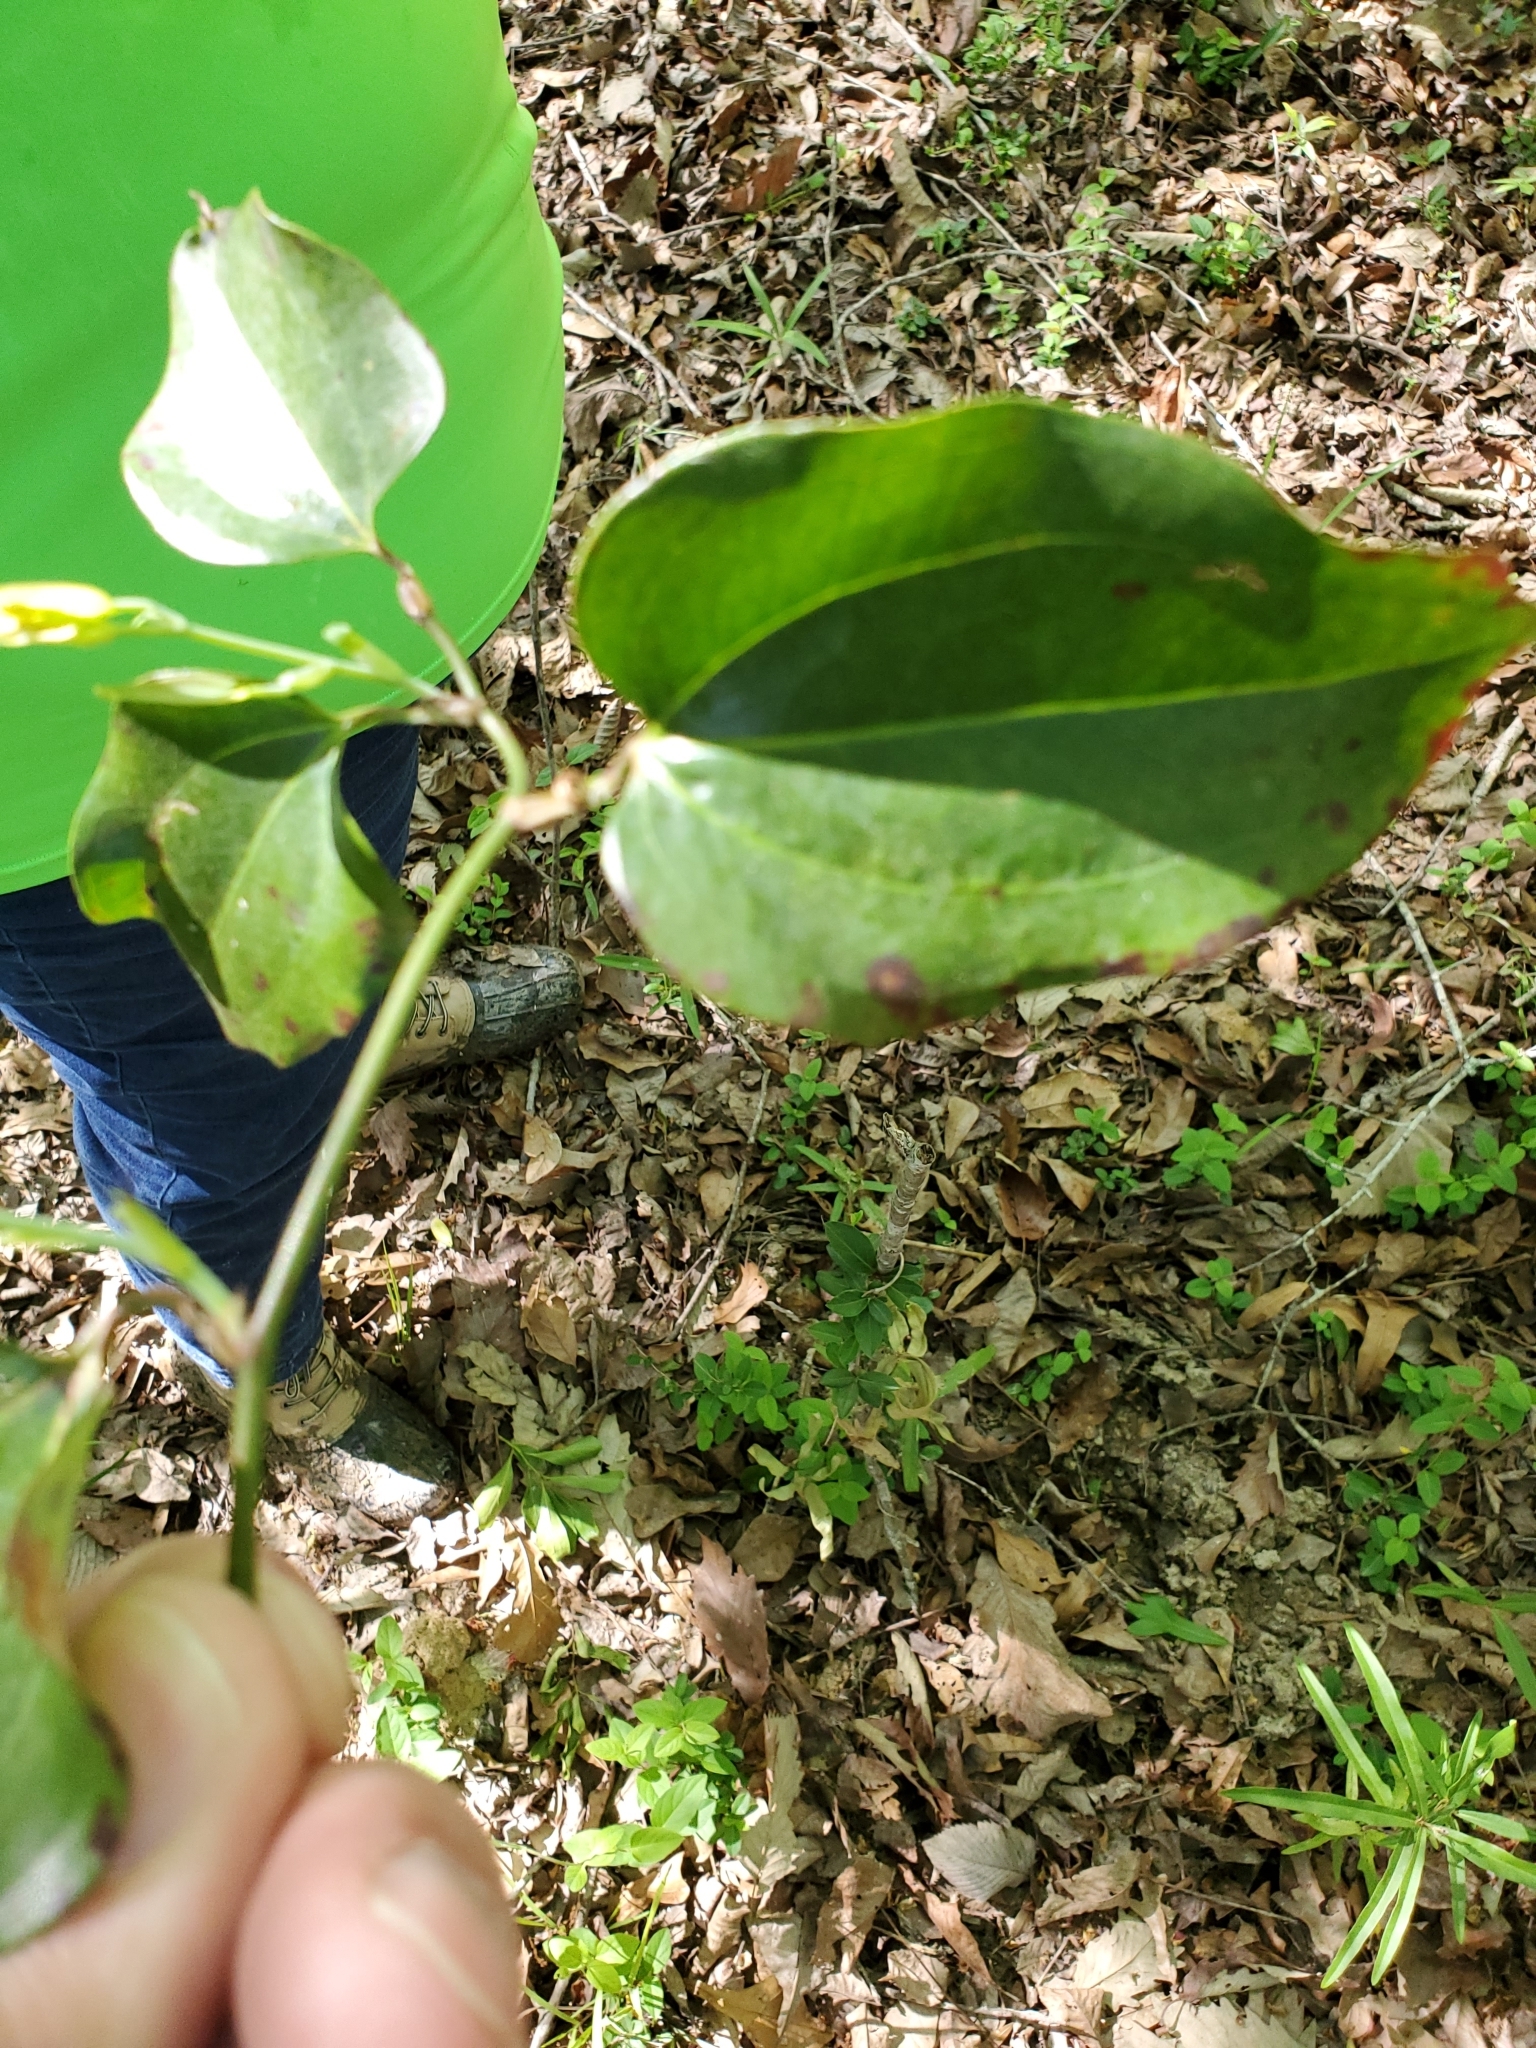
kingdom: Plantae
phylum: Tracheophyta
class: Liliopsida
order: Liliales
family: Smilacaceae
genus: Smilax
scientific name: Smilax glauca
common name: Cat greenbrier
